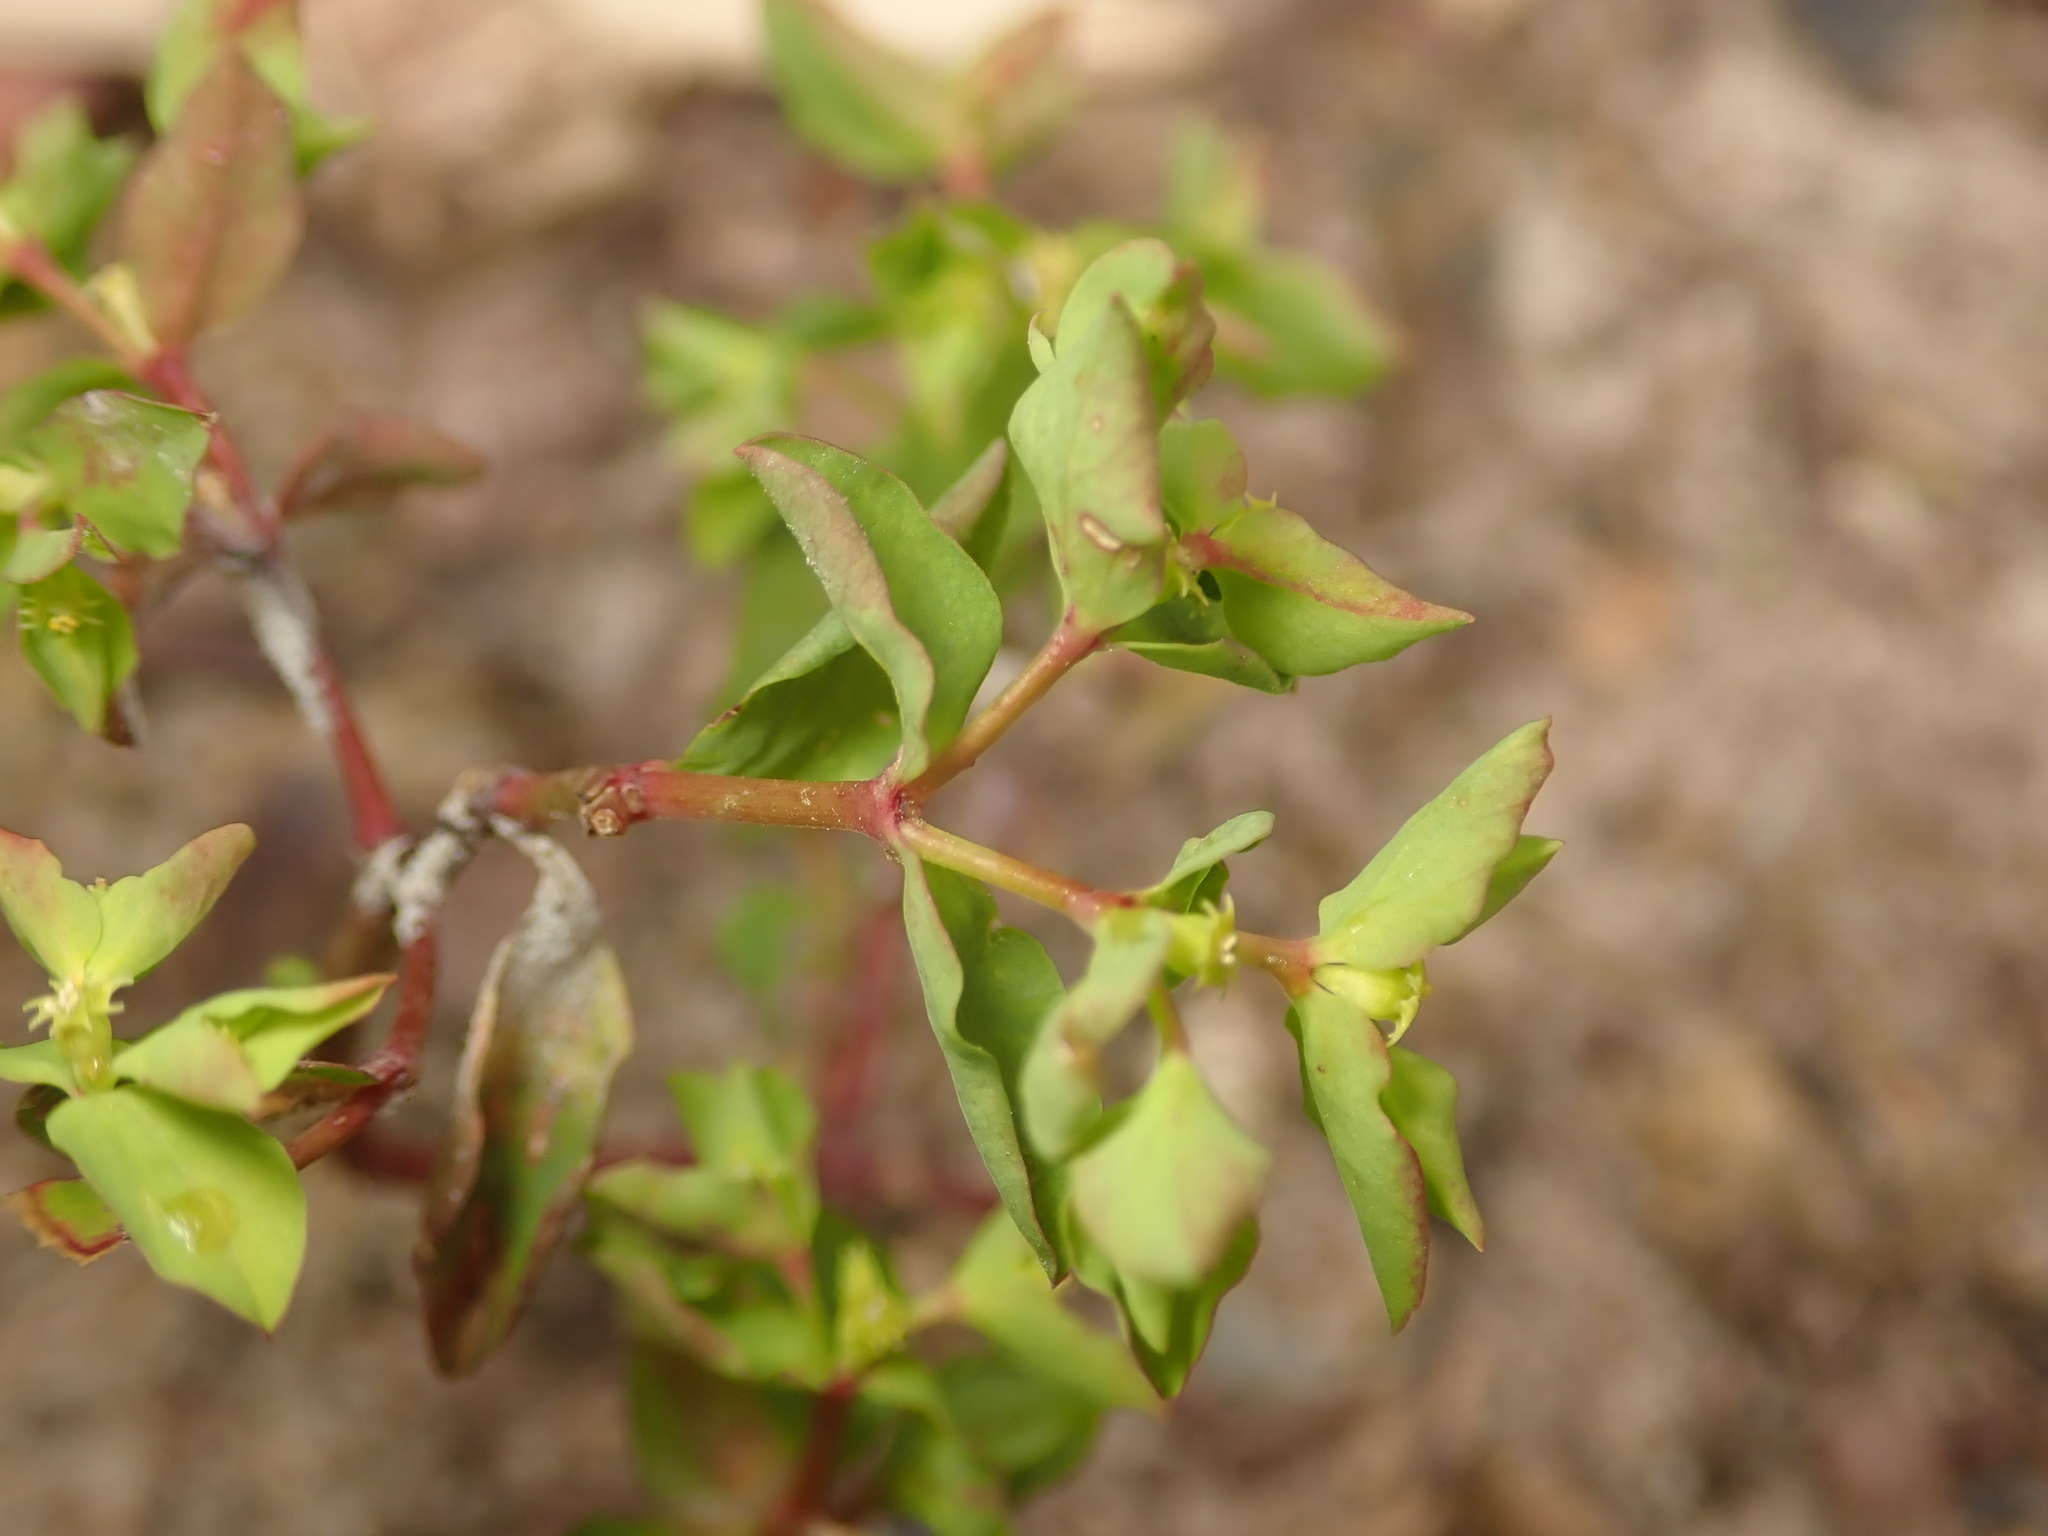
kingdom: Plantae
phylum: Tracheophyta
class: Magnoliopsida
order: Malpighiales
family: Euphorbiaceae
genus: Euphorbia
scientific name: Euphorbia peplus
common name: Petty spurge
